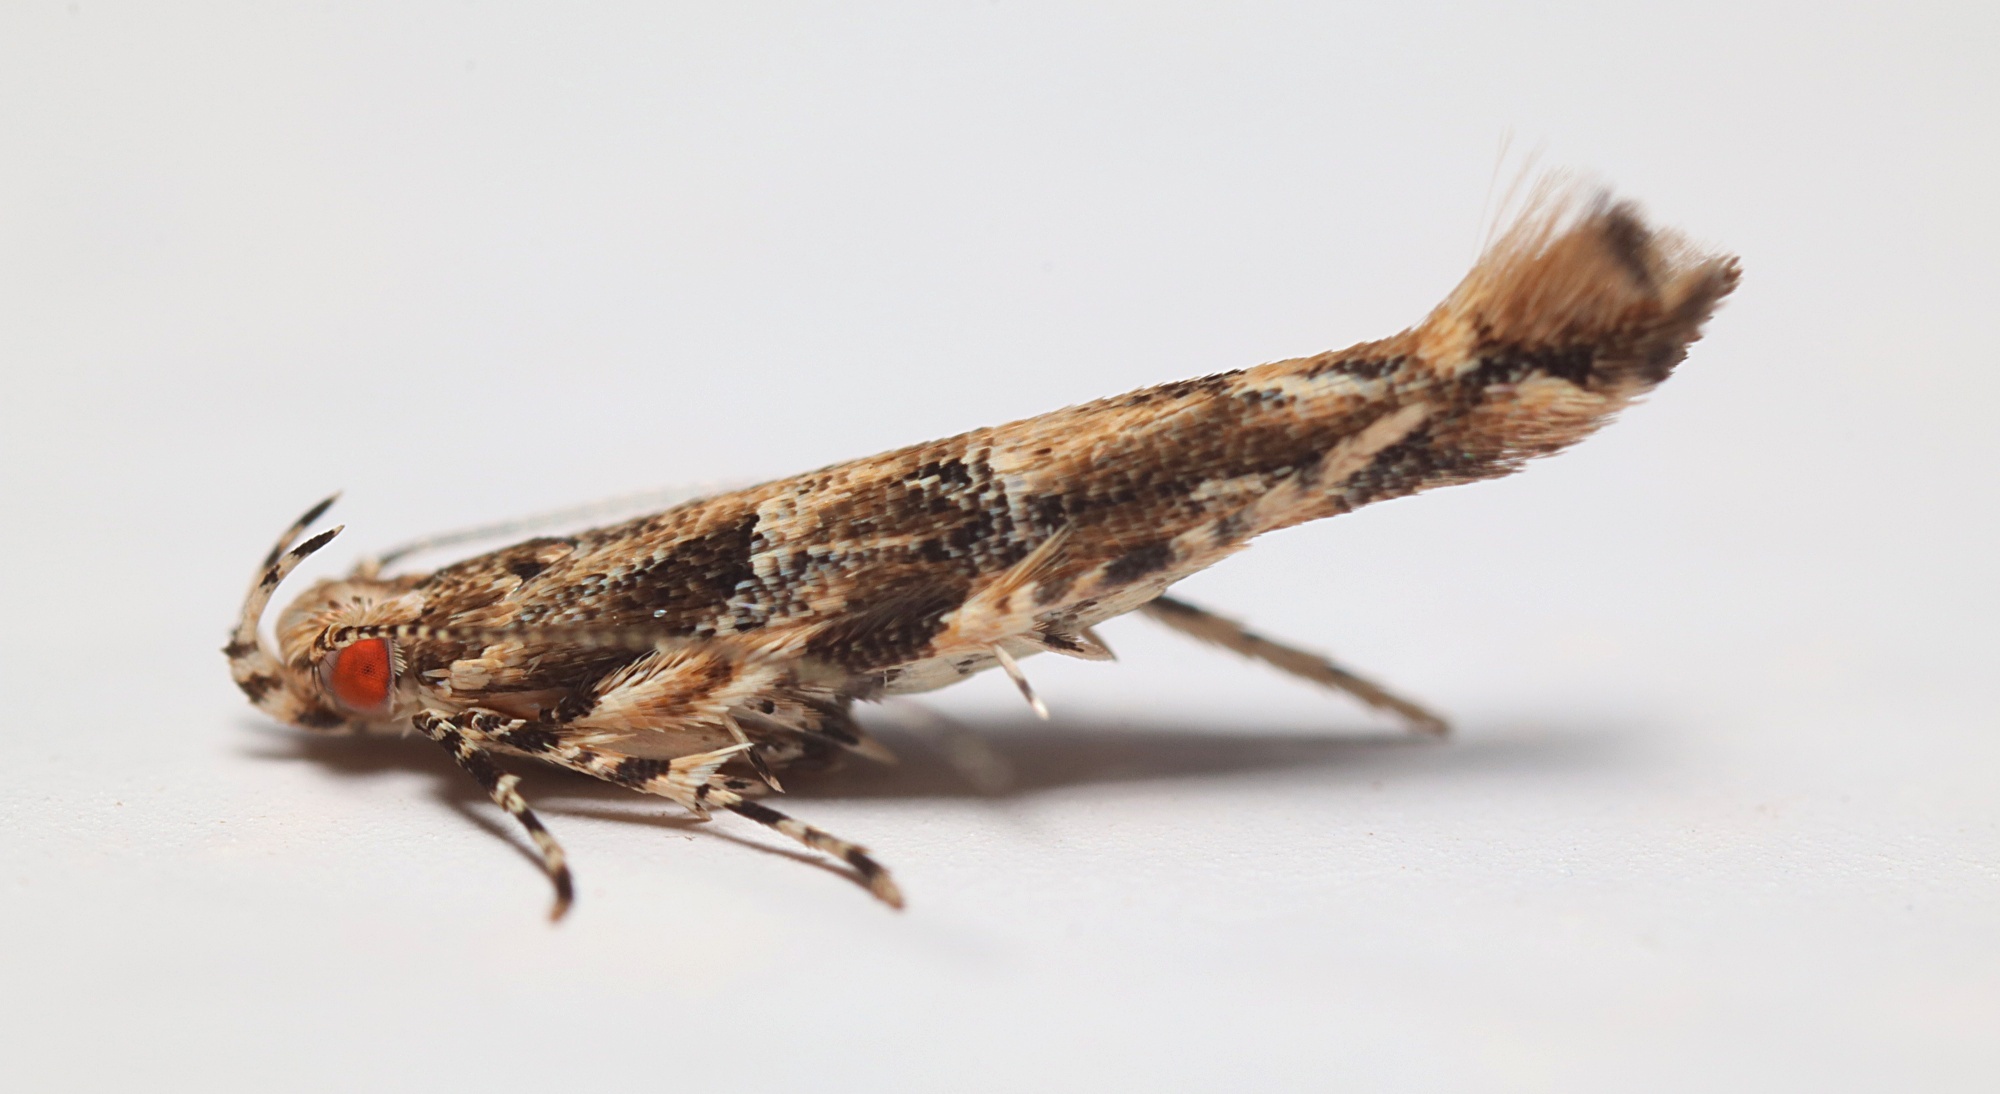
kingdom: Animalia
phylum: Arthropoda
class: Insecta
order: Lepidoptera
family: Cosmopterigidae
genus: Pyroderces
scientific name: Pyroderces aellotricha
